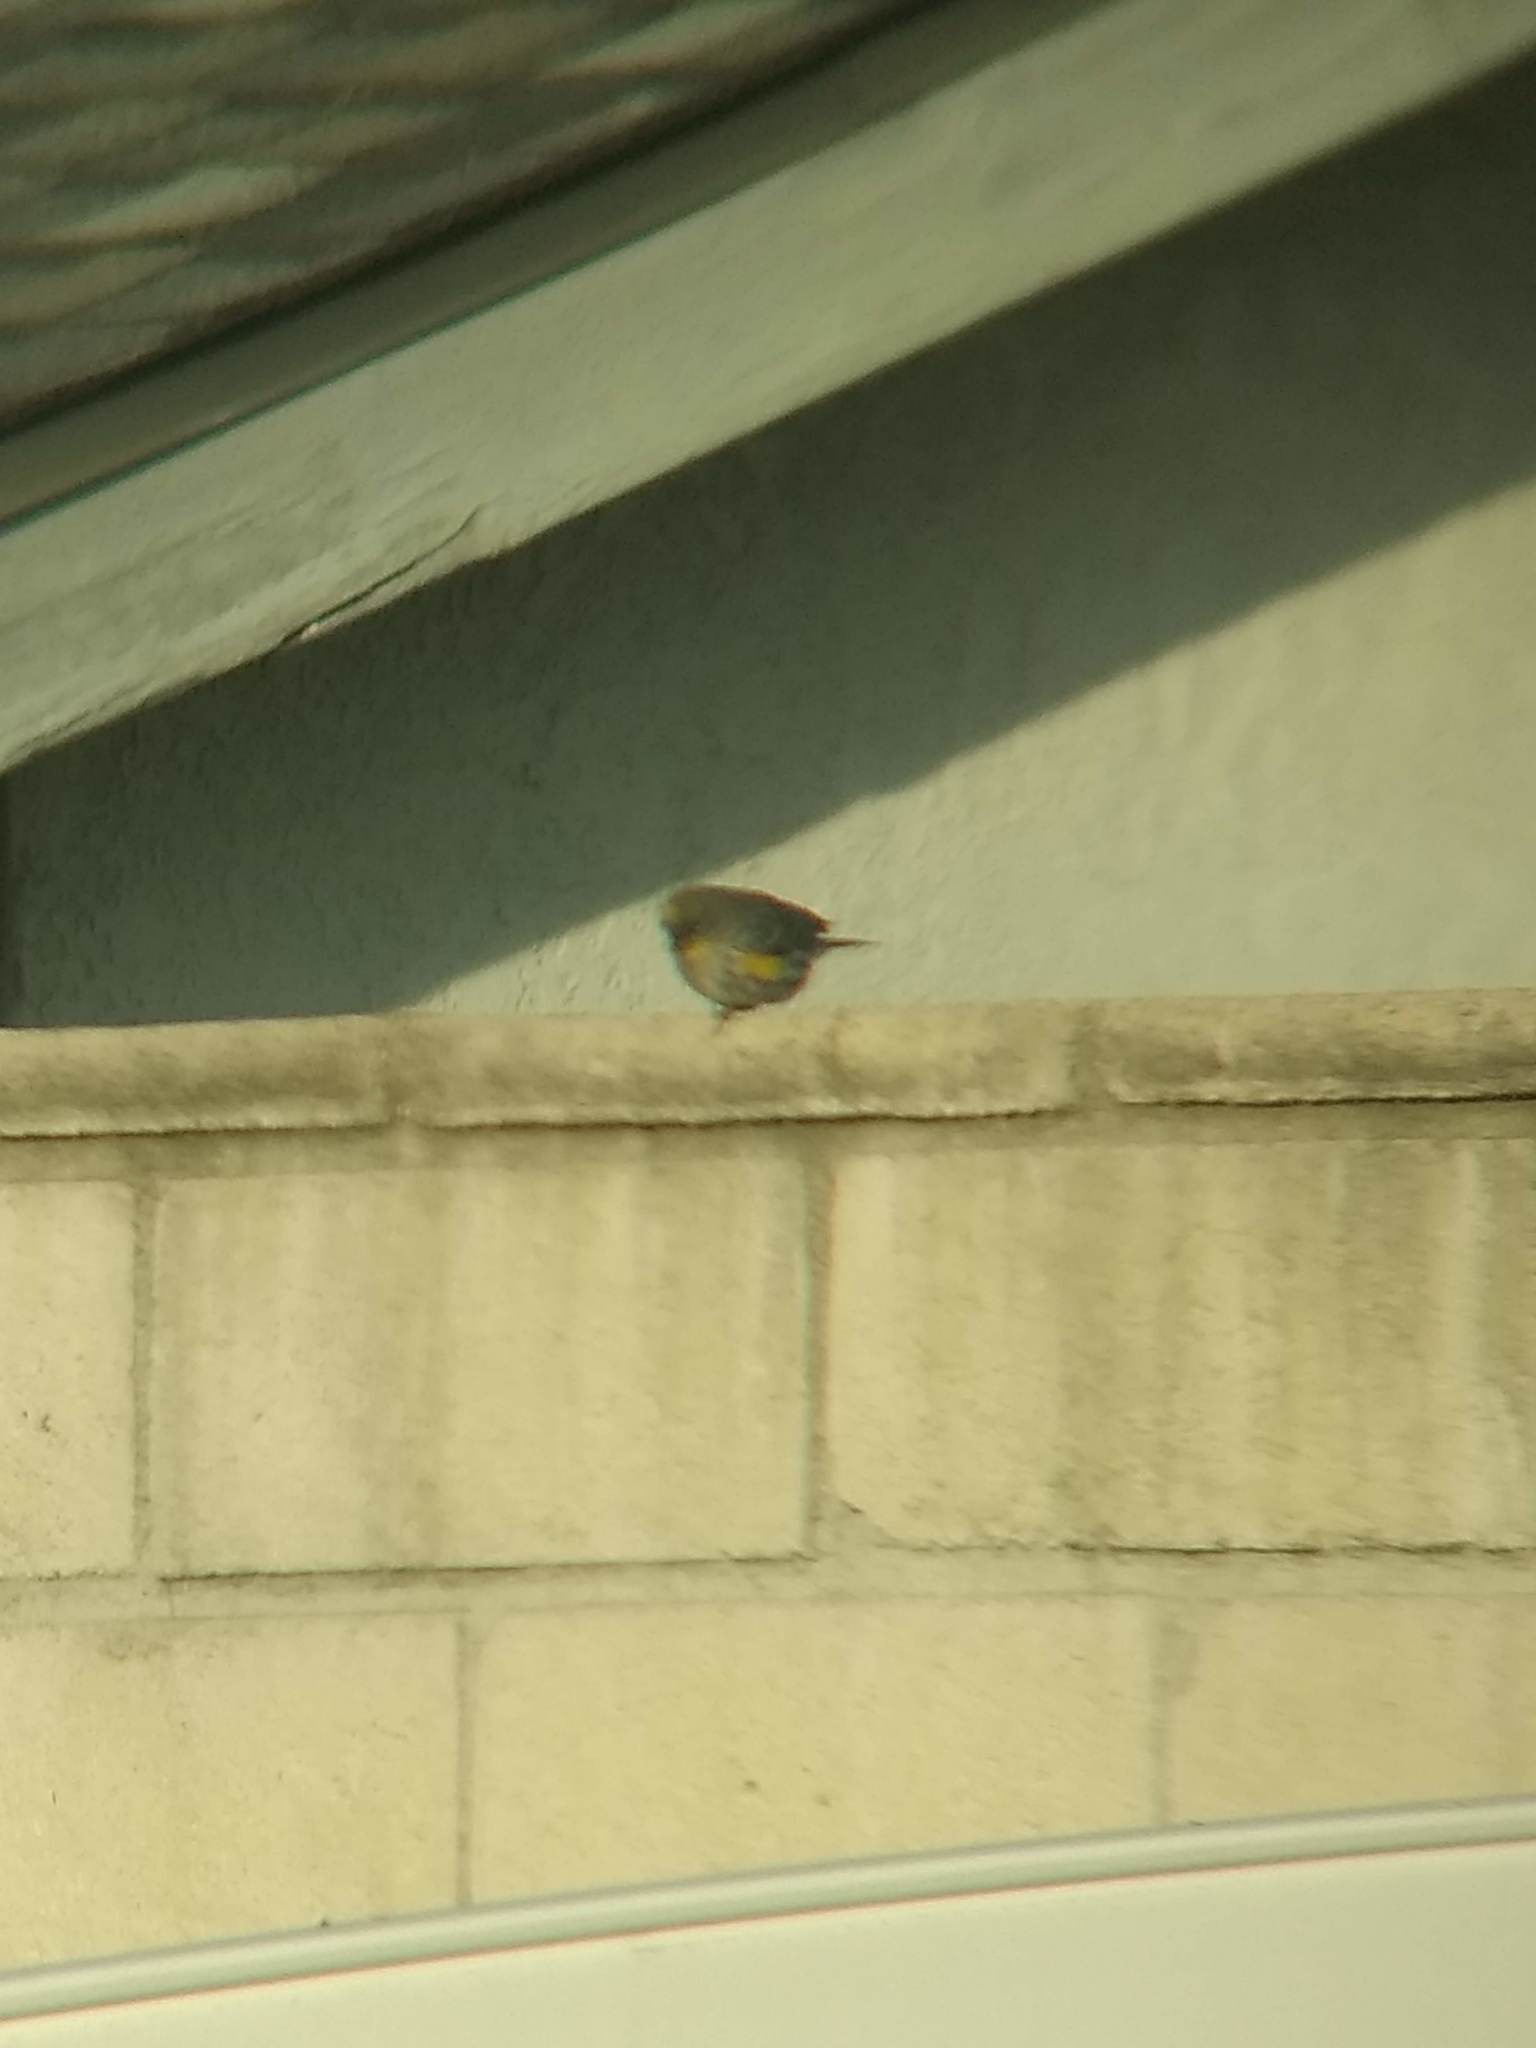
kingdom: Animalia
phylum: Chordata
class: Aves
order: Passeriformes
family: Parulidae
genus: Setophaga
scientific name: Setophaga coronata
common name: Myrtle warbler
